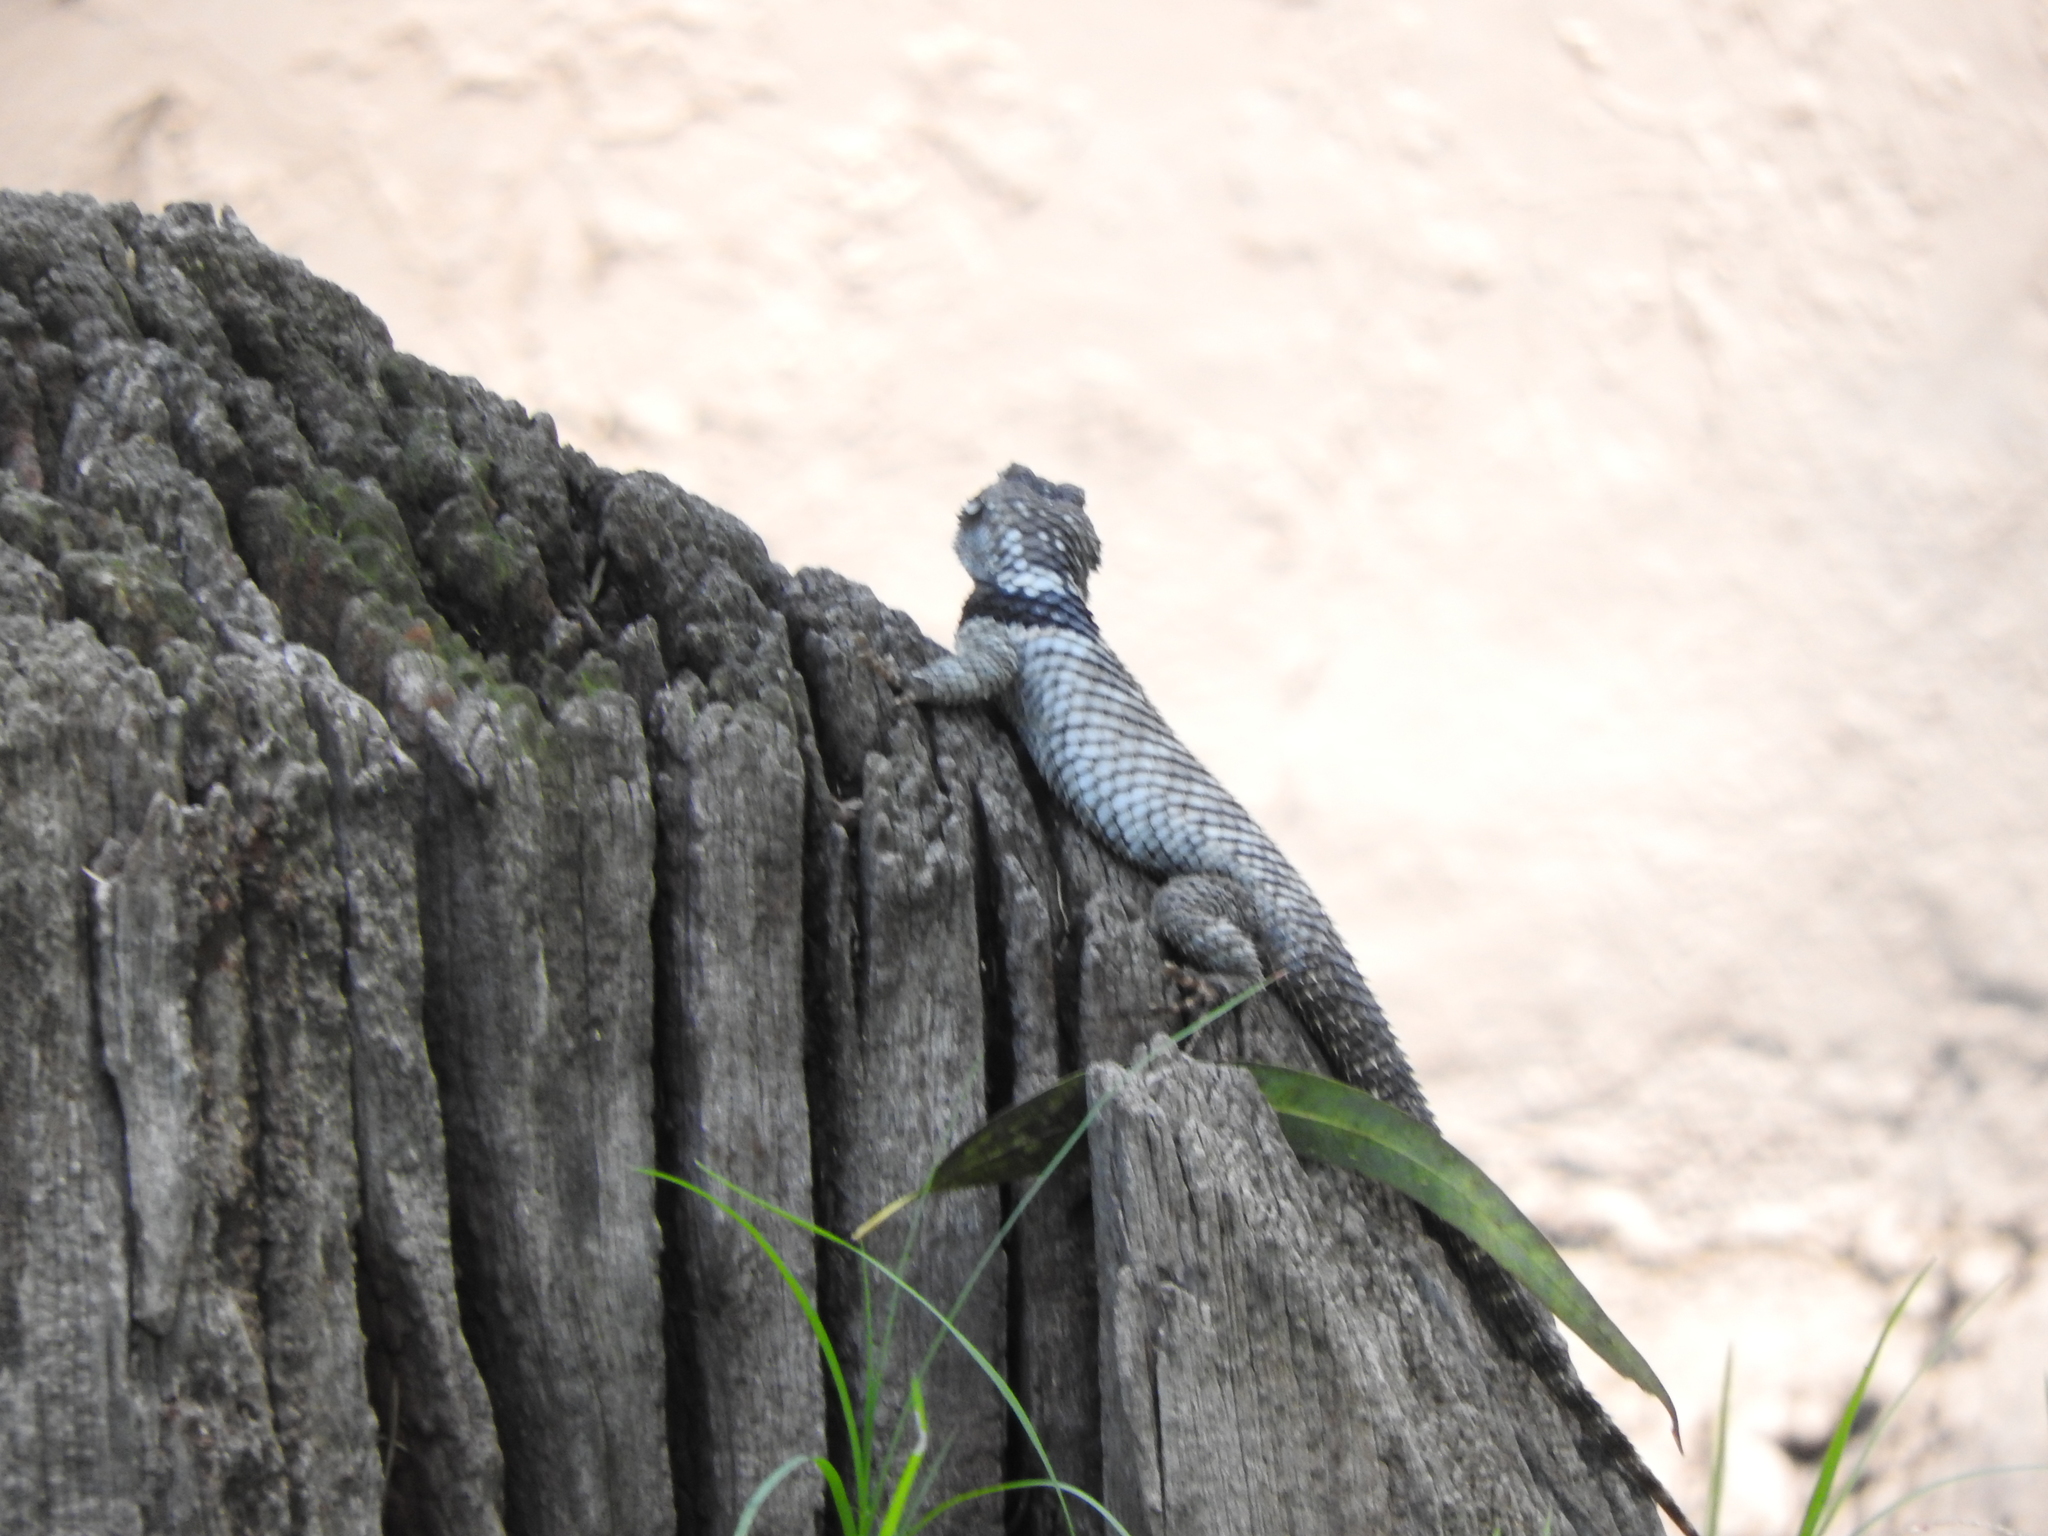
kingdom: Animalia
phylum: Chordata
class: Squamata
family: Phrynosomatidae
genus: Sceloporus
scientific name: Sceloporus torquatus
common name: Central plateau torquate lizard [melanogaster]
